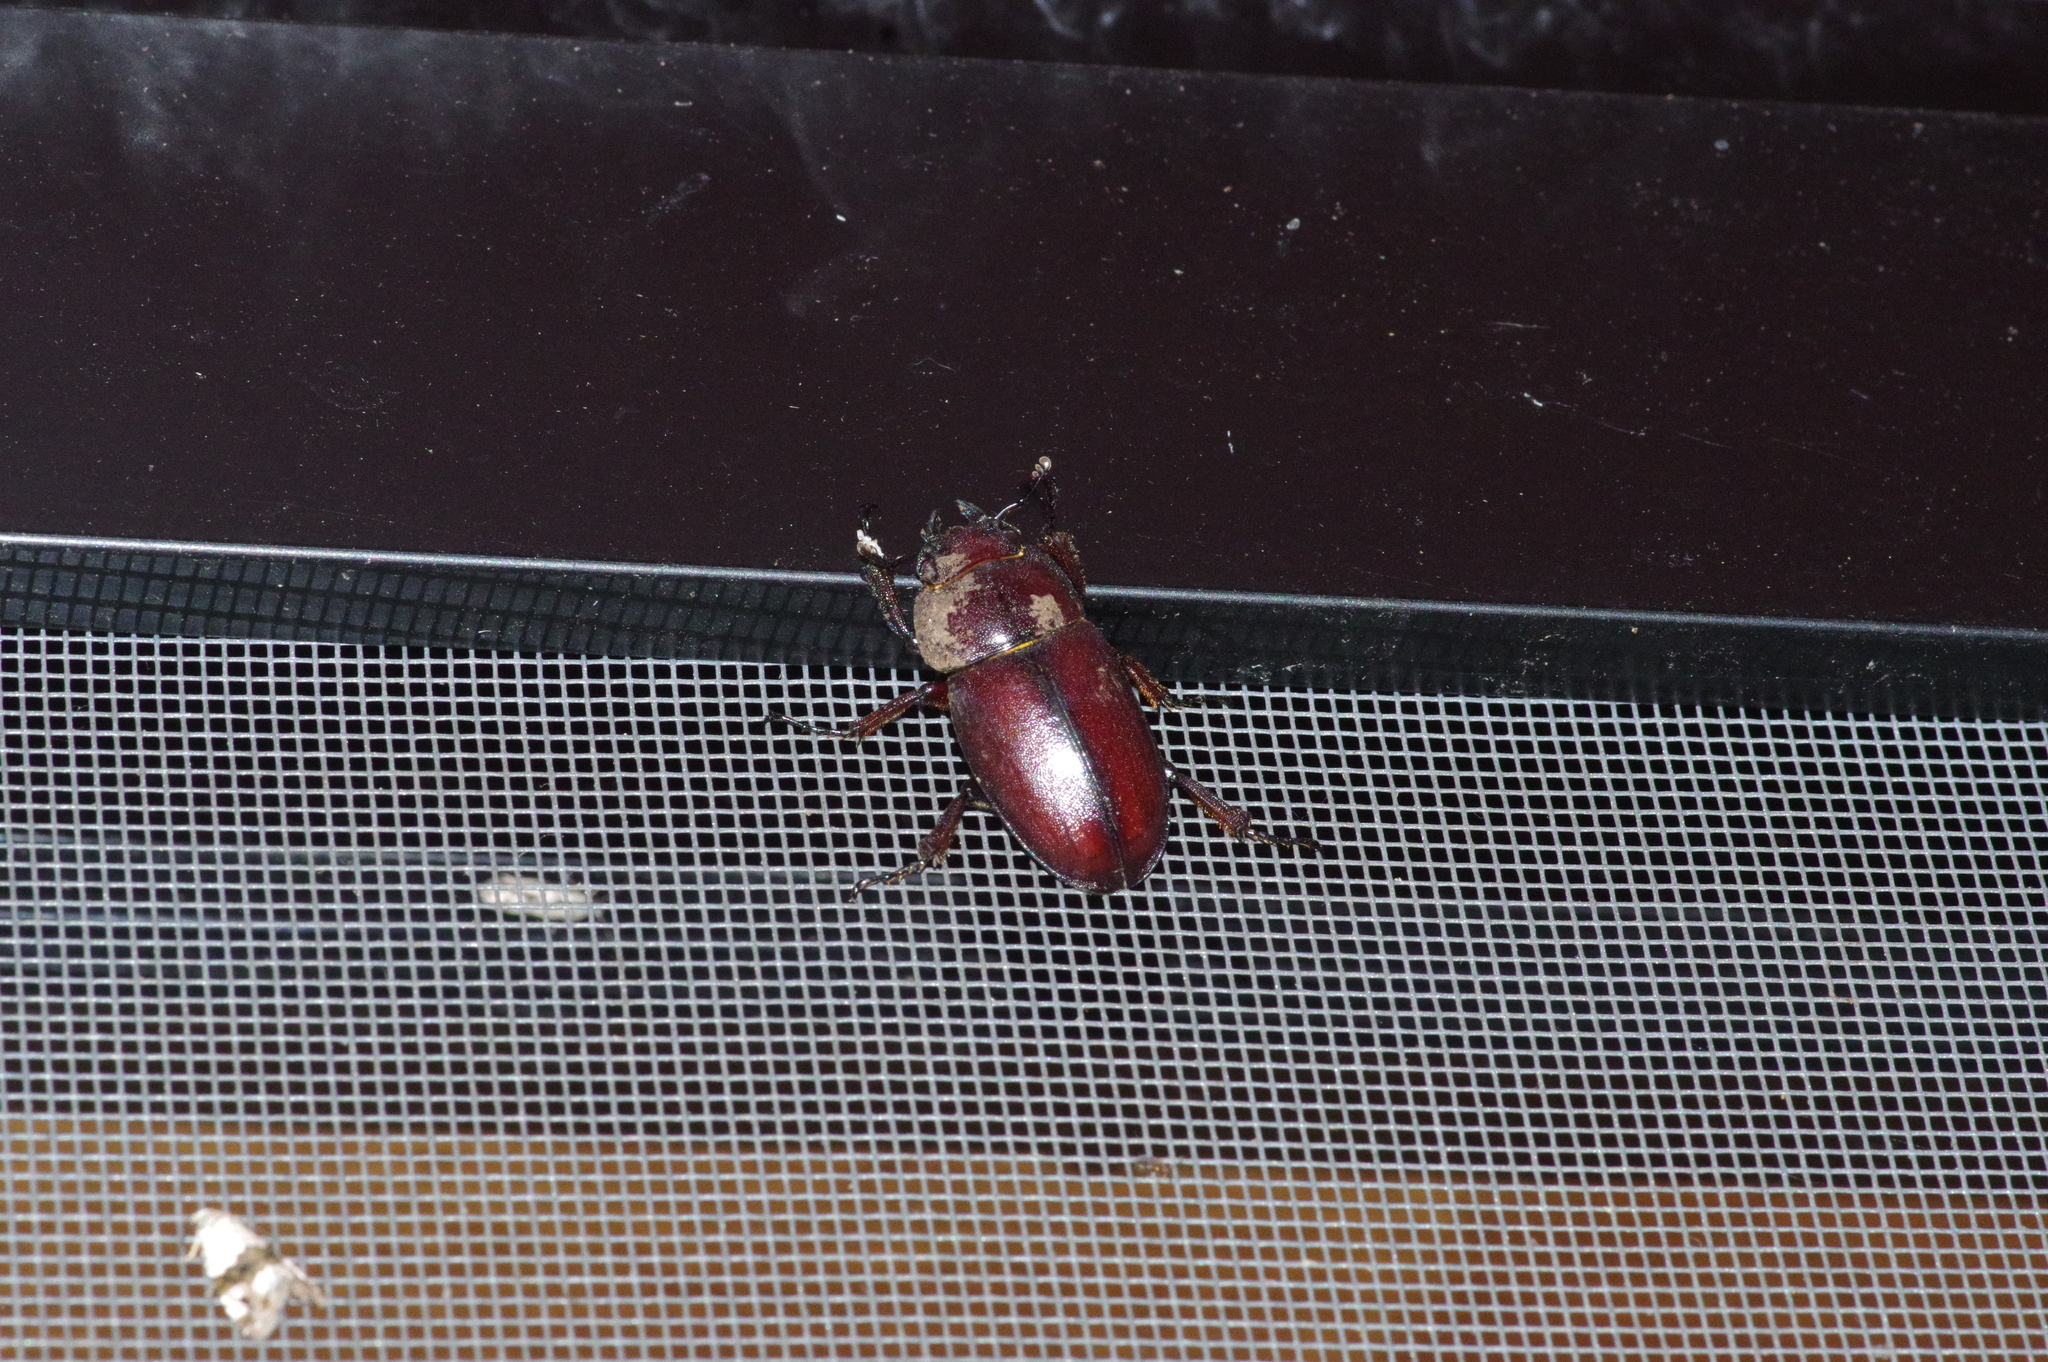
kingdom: Animalia
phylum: Arthropoda
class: Insecta
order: Coleoptera
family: Lucanidae
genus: Prosopocoilus
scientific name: Prosopocoilus dissimilis
